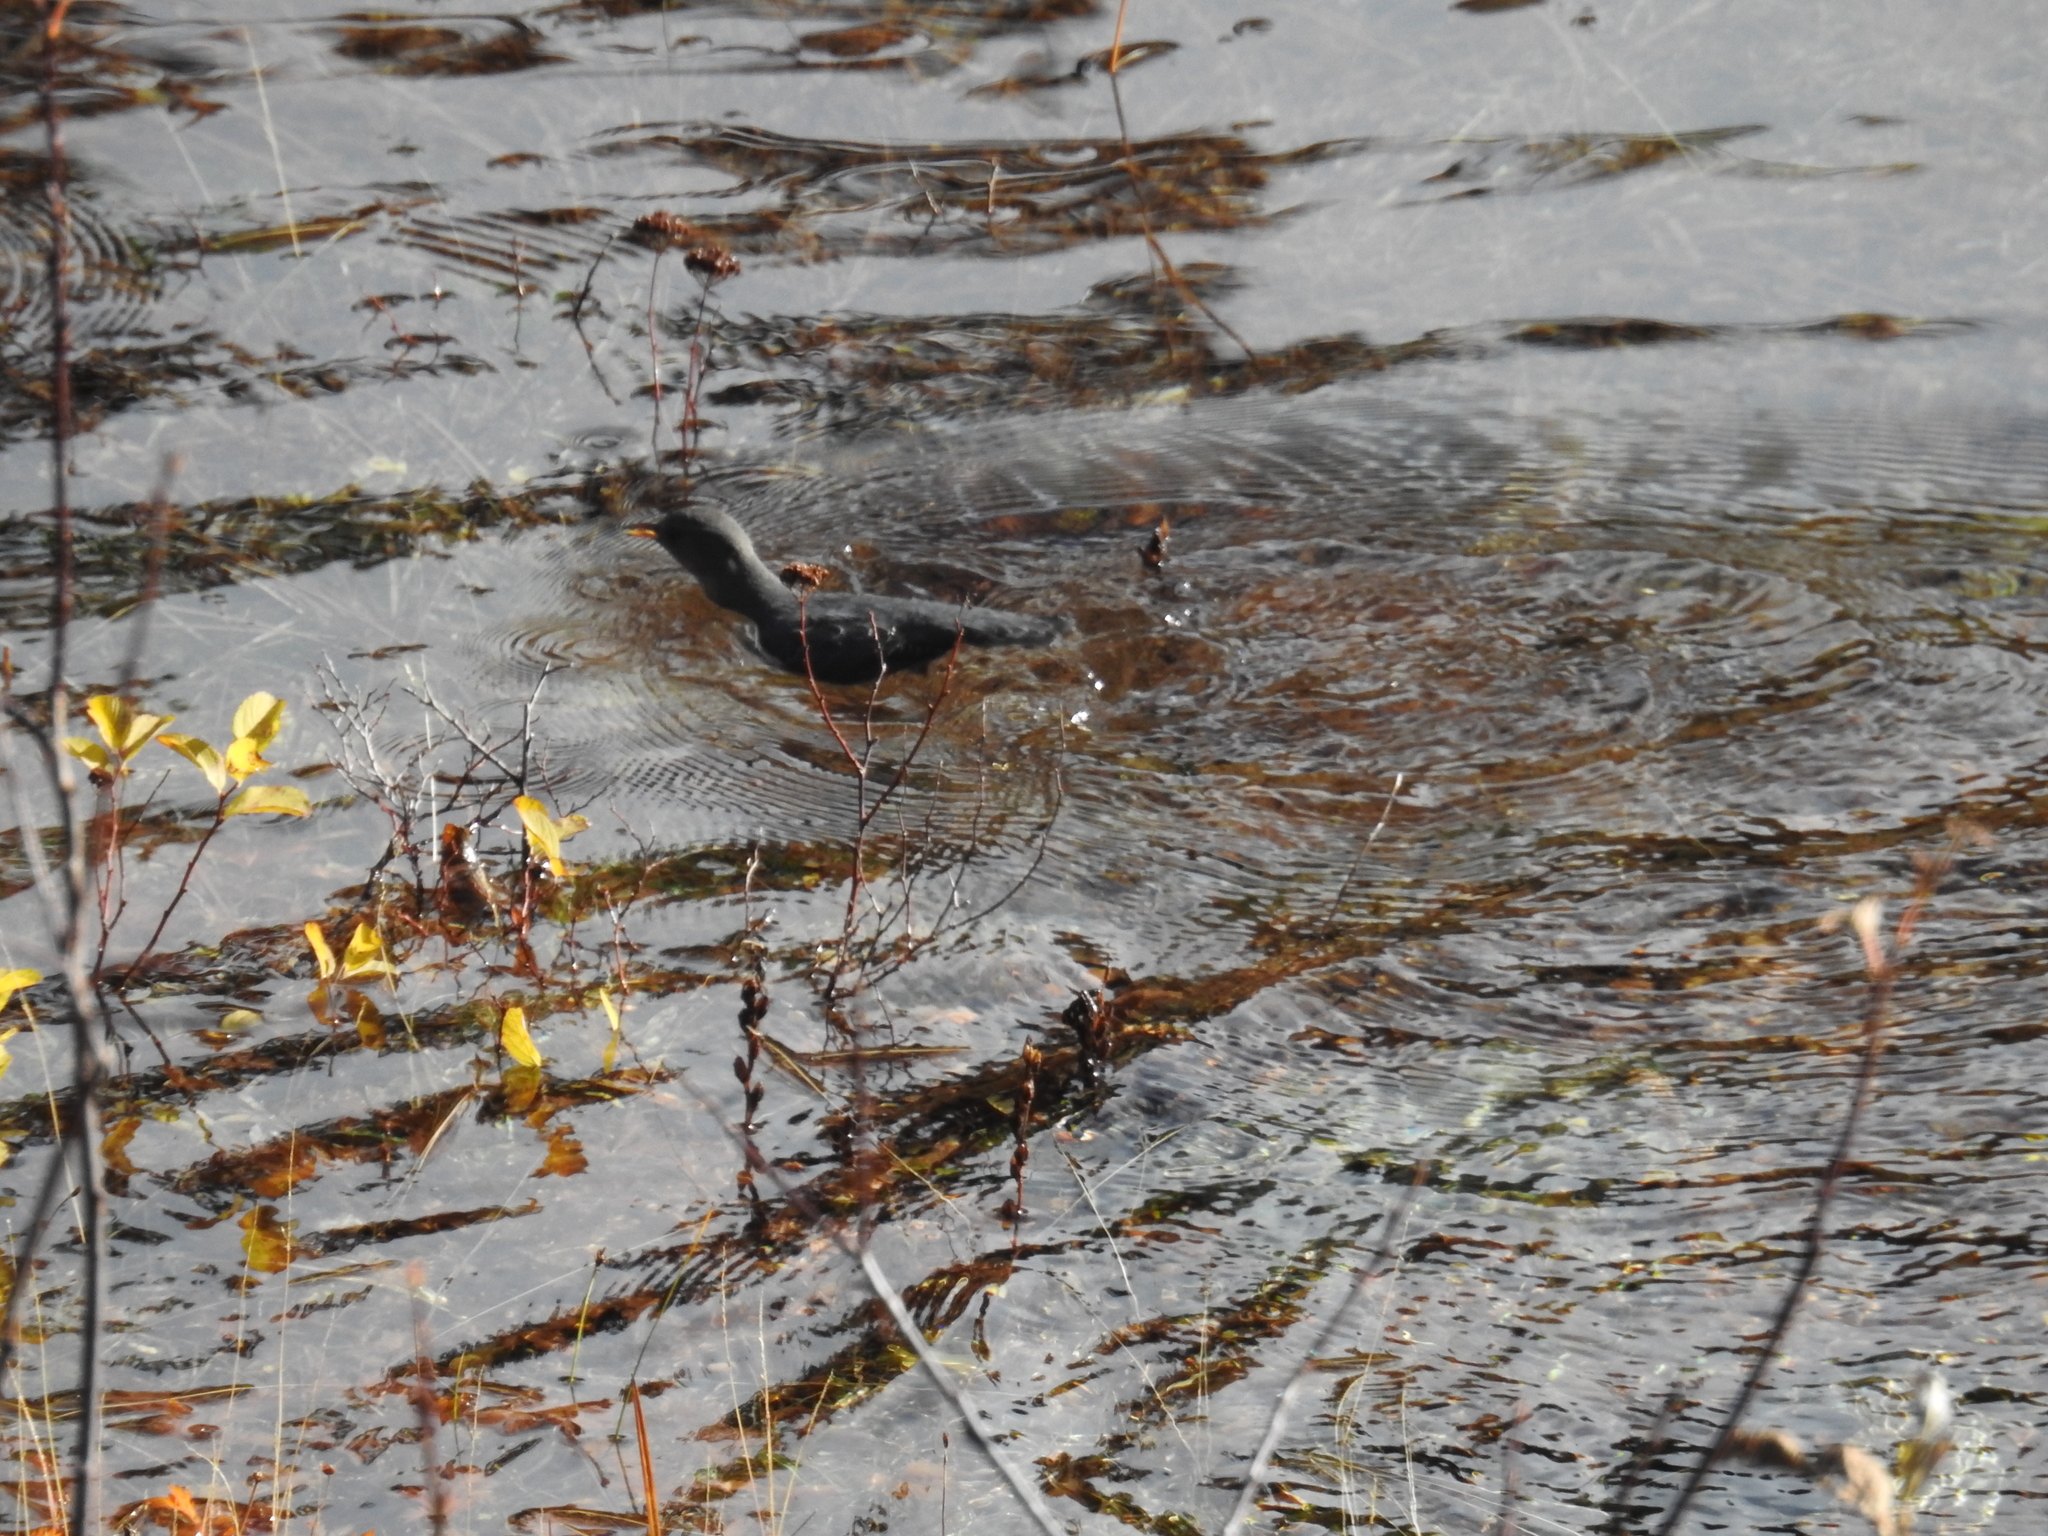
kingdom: Animalia
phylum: Chordata
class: Aves
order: Passeriformes
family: Cinclidae
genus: Cinclus
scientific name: Cinclus mexicanus
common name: American dipper
